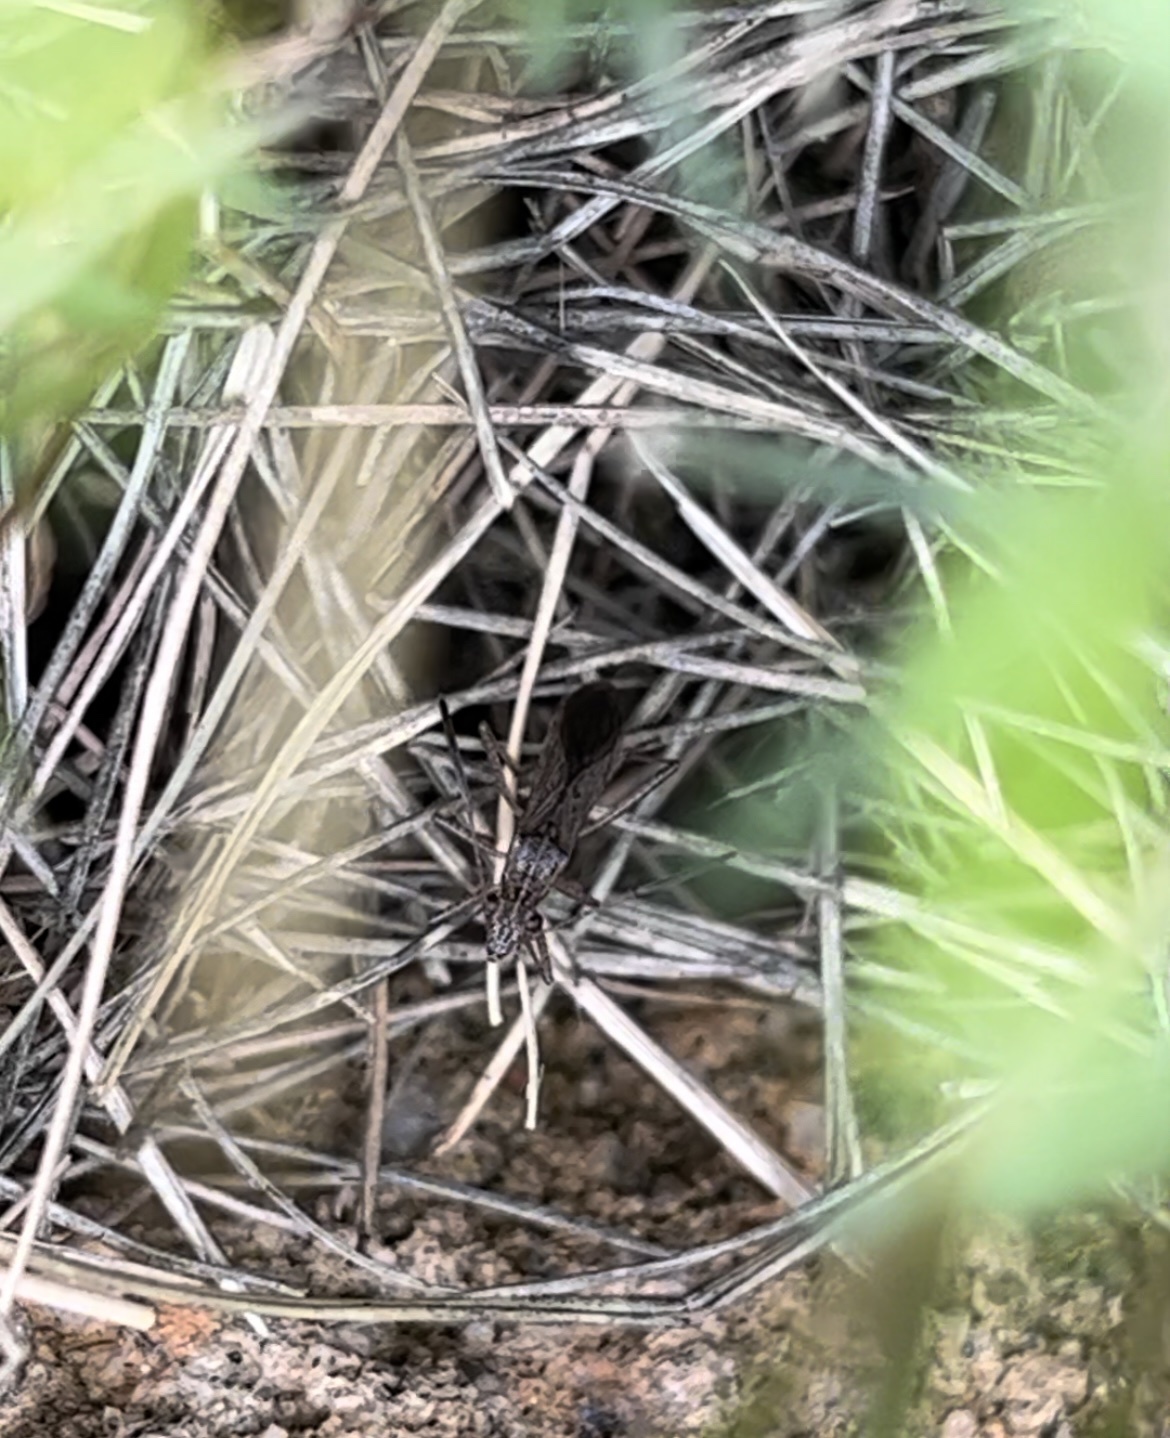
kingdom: Animalia
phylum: Arthropoda
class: Insecta
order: Hemiptera
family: Alydidae
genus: Esperanza
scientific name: Esperanza texana
